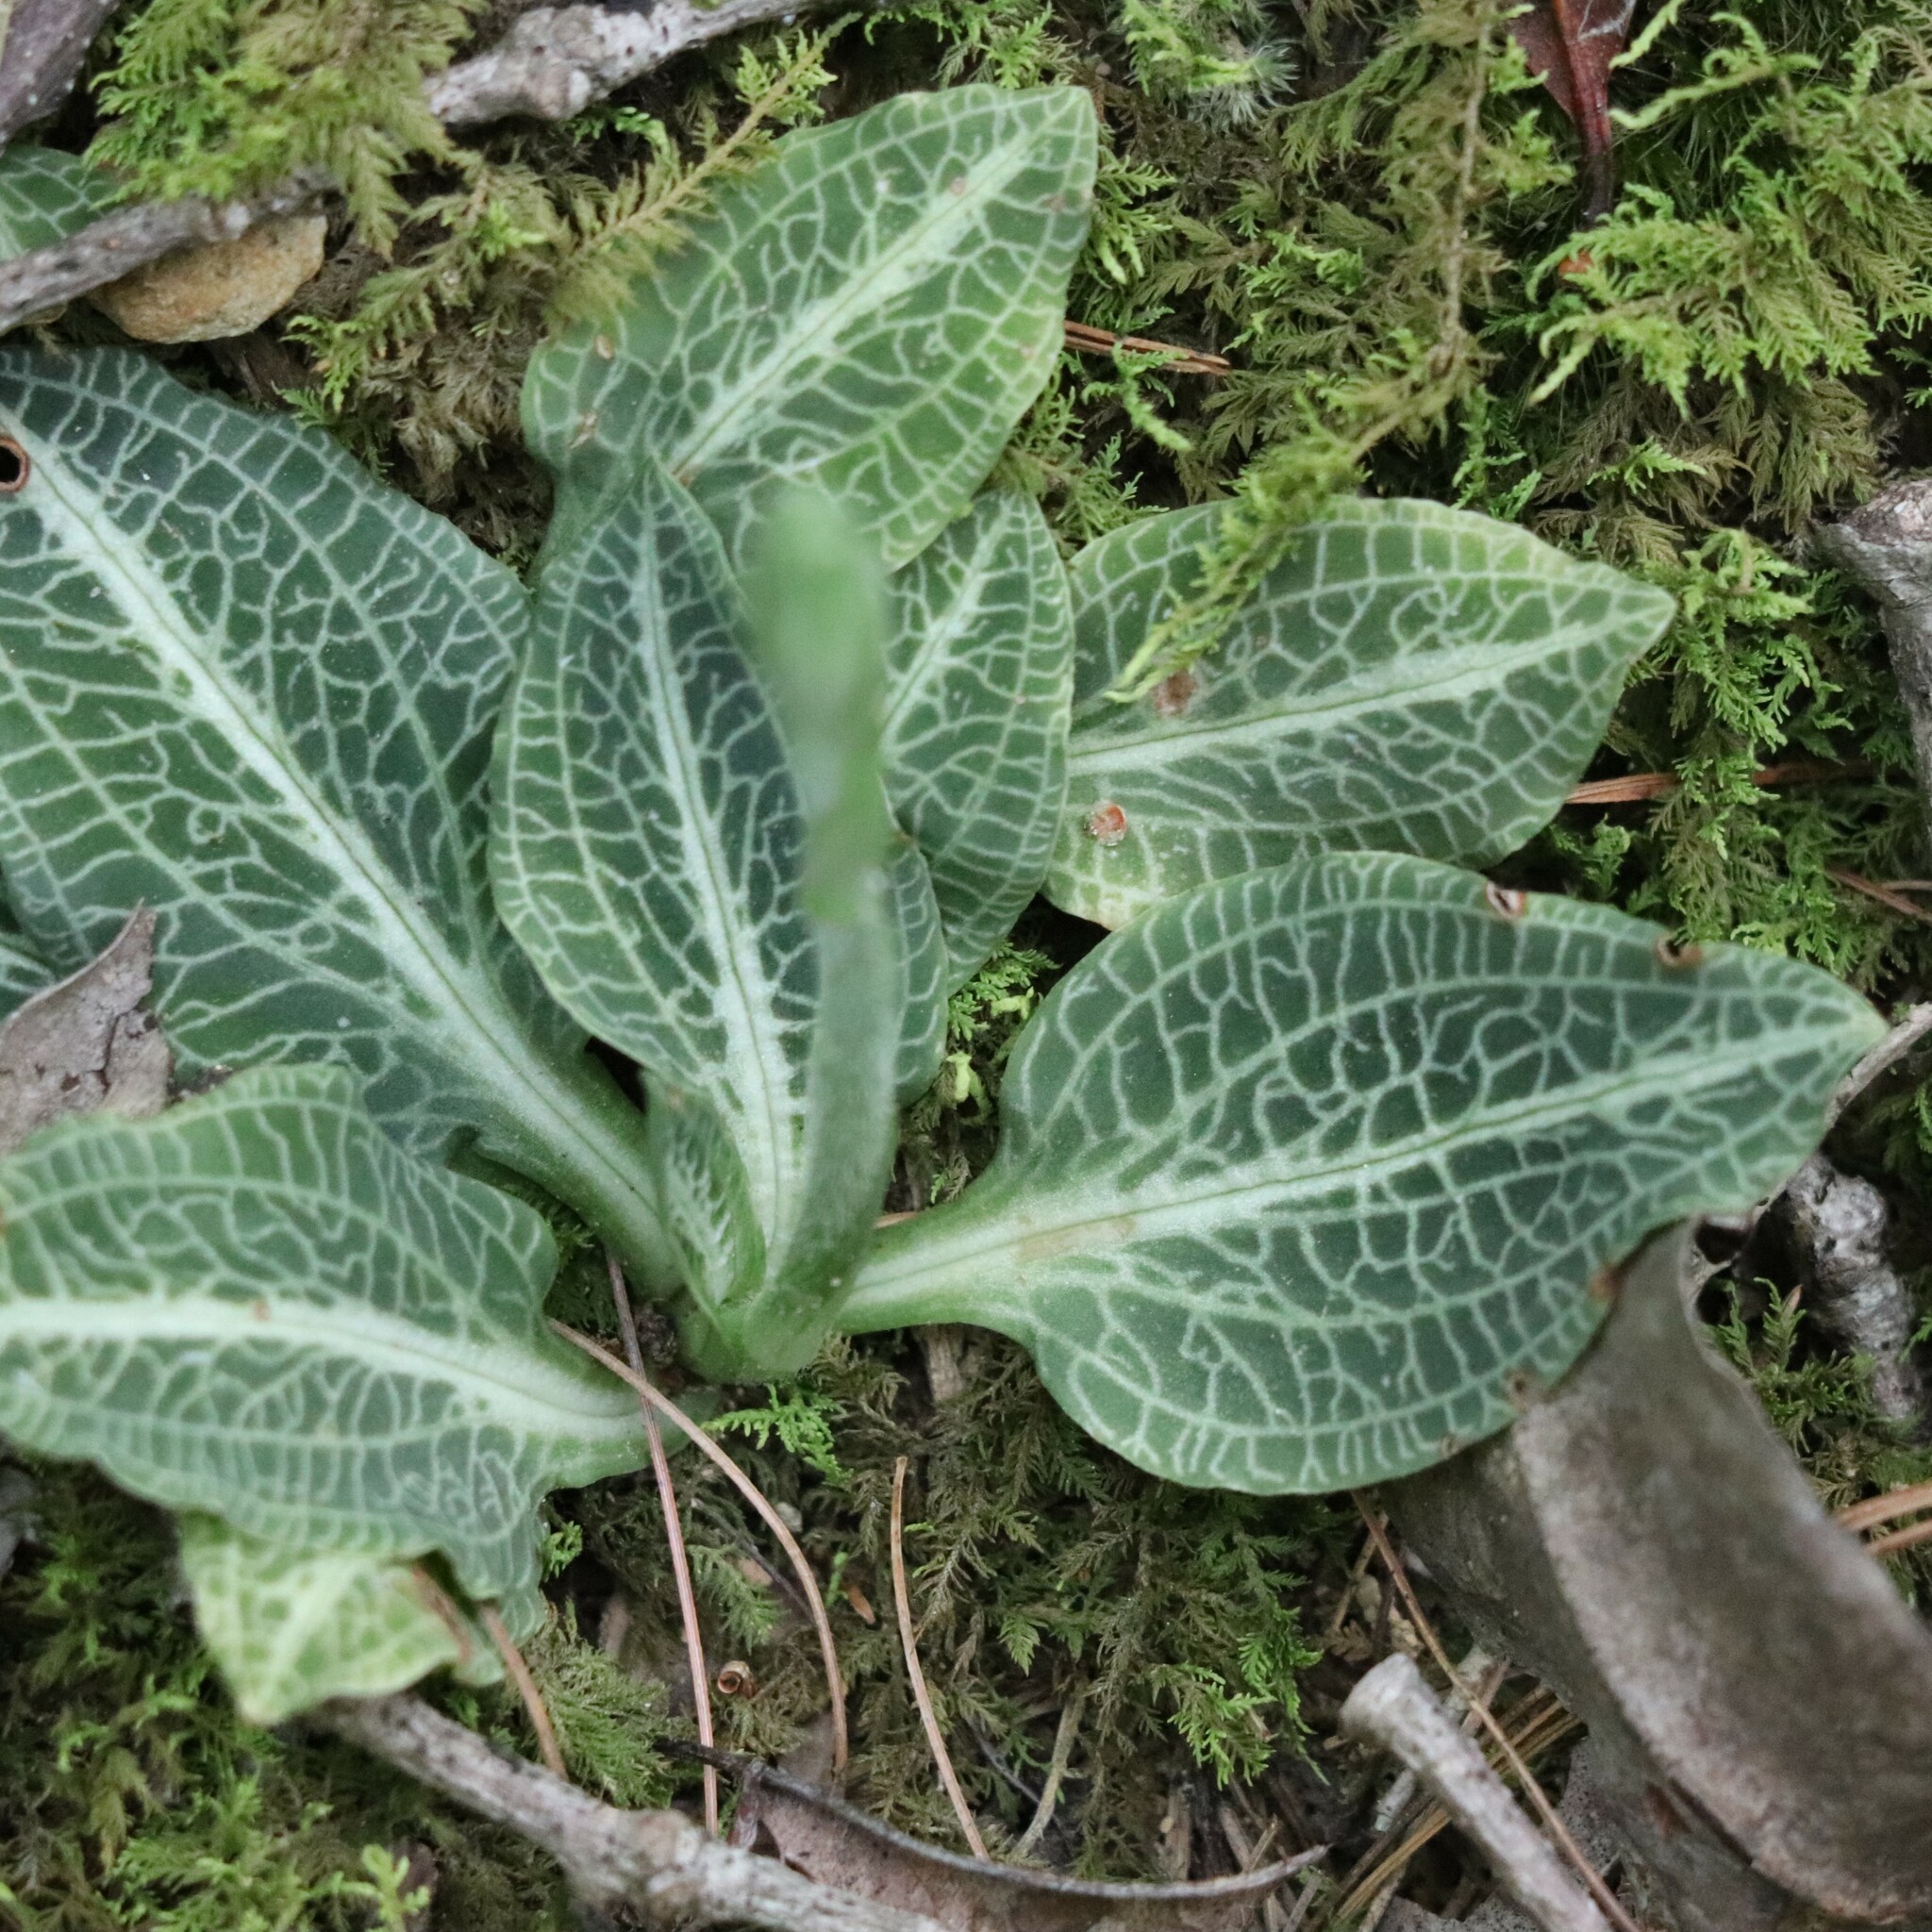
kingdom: Plantae
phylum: Tracheophyta
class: Liliopsida
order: Asparagales
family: Orchidaceae
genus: Goodyera
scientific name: Goodyera pubescens
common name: Downy rattlesnake-plantain
